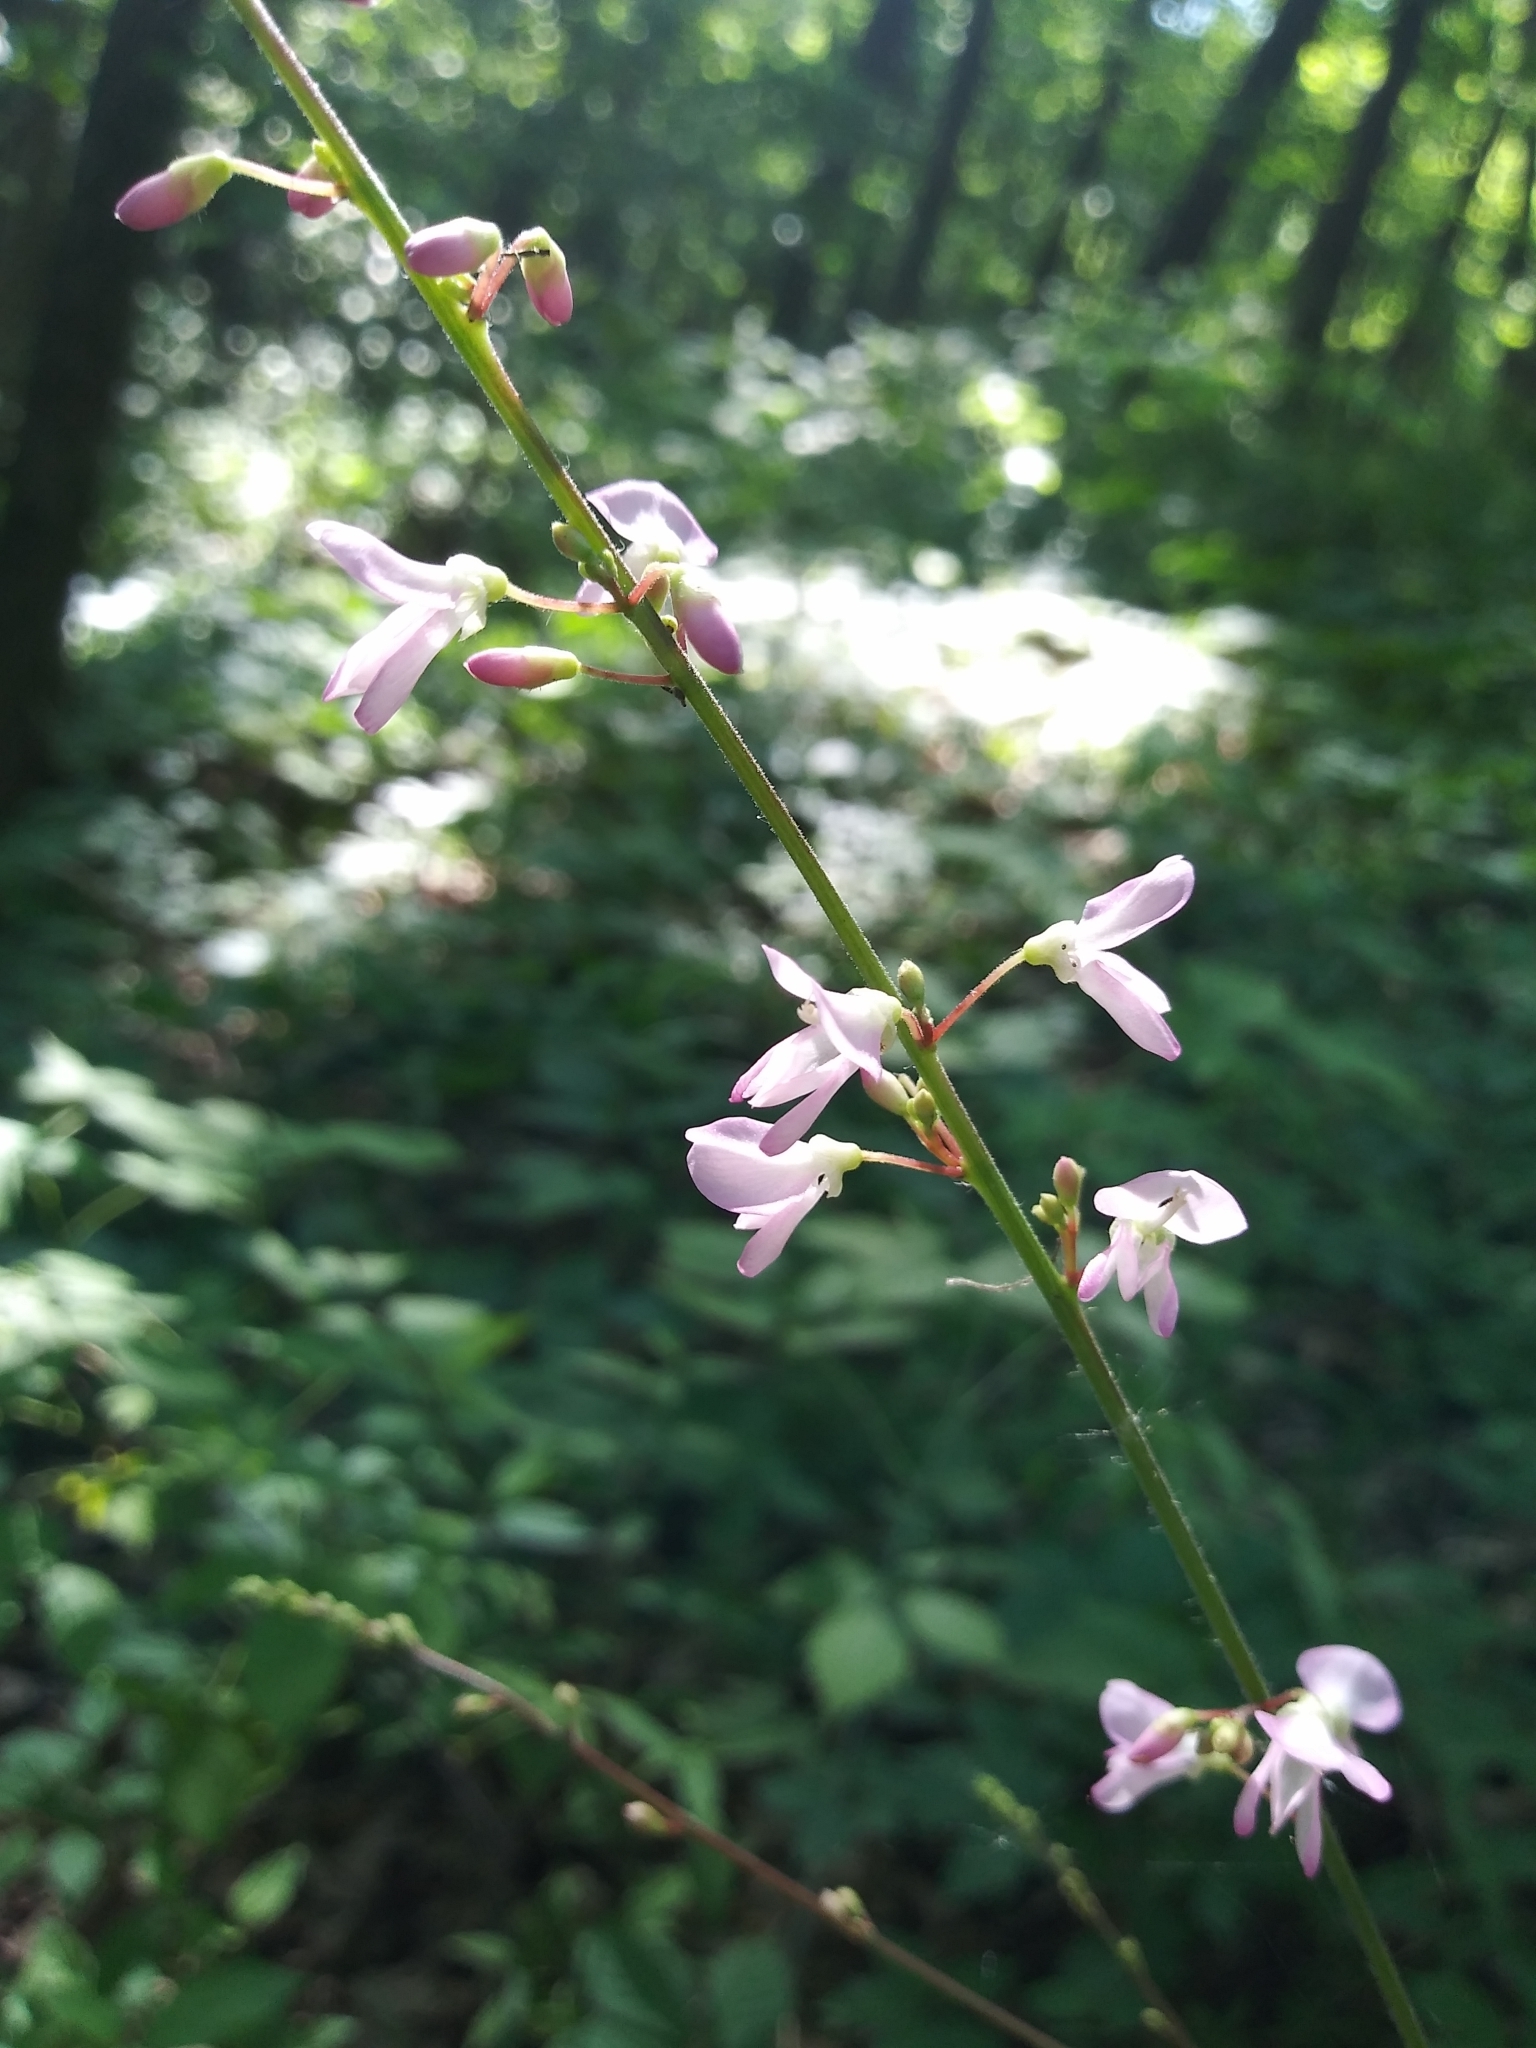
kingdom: Plantae
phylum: Tracheophyta
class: Magnoliopsida
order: Fabales
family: Fabaceae
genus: Hylodesmum
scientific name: Hylodesmum glutinosum
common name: Clustered-leaved tick-trefoil
